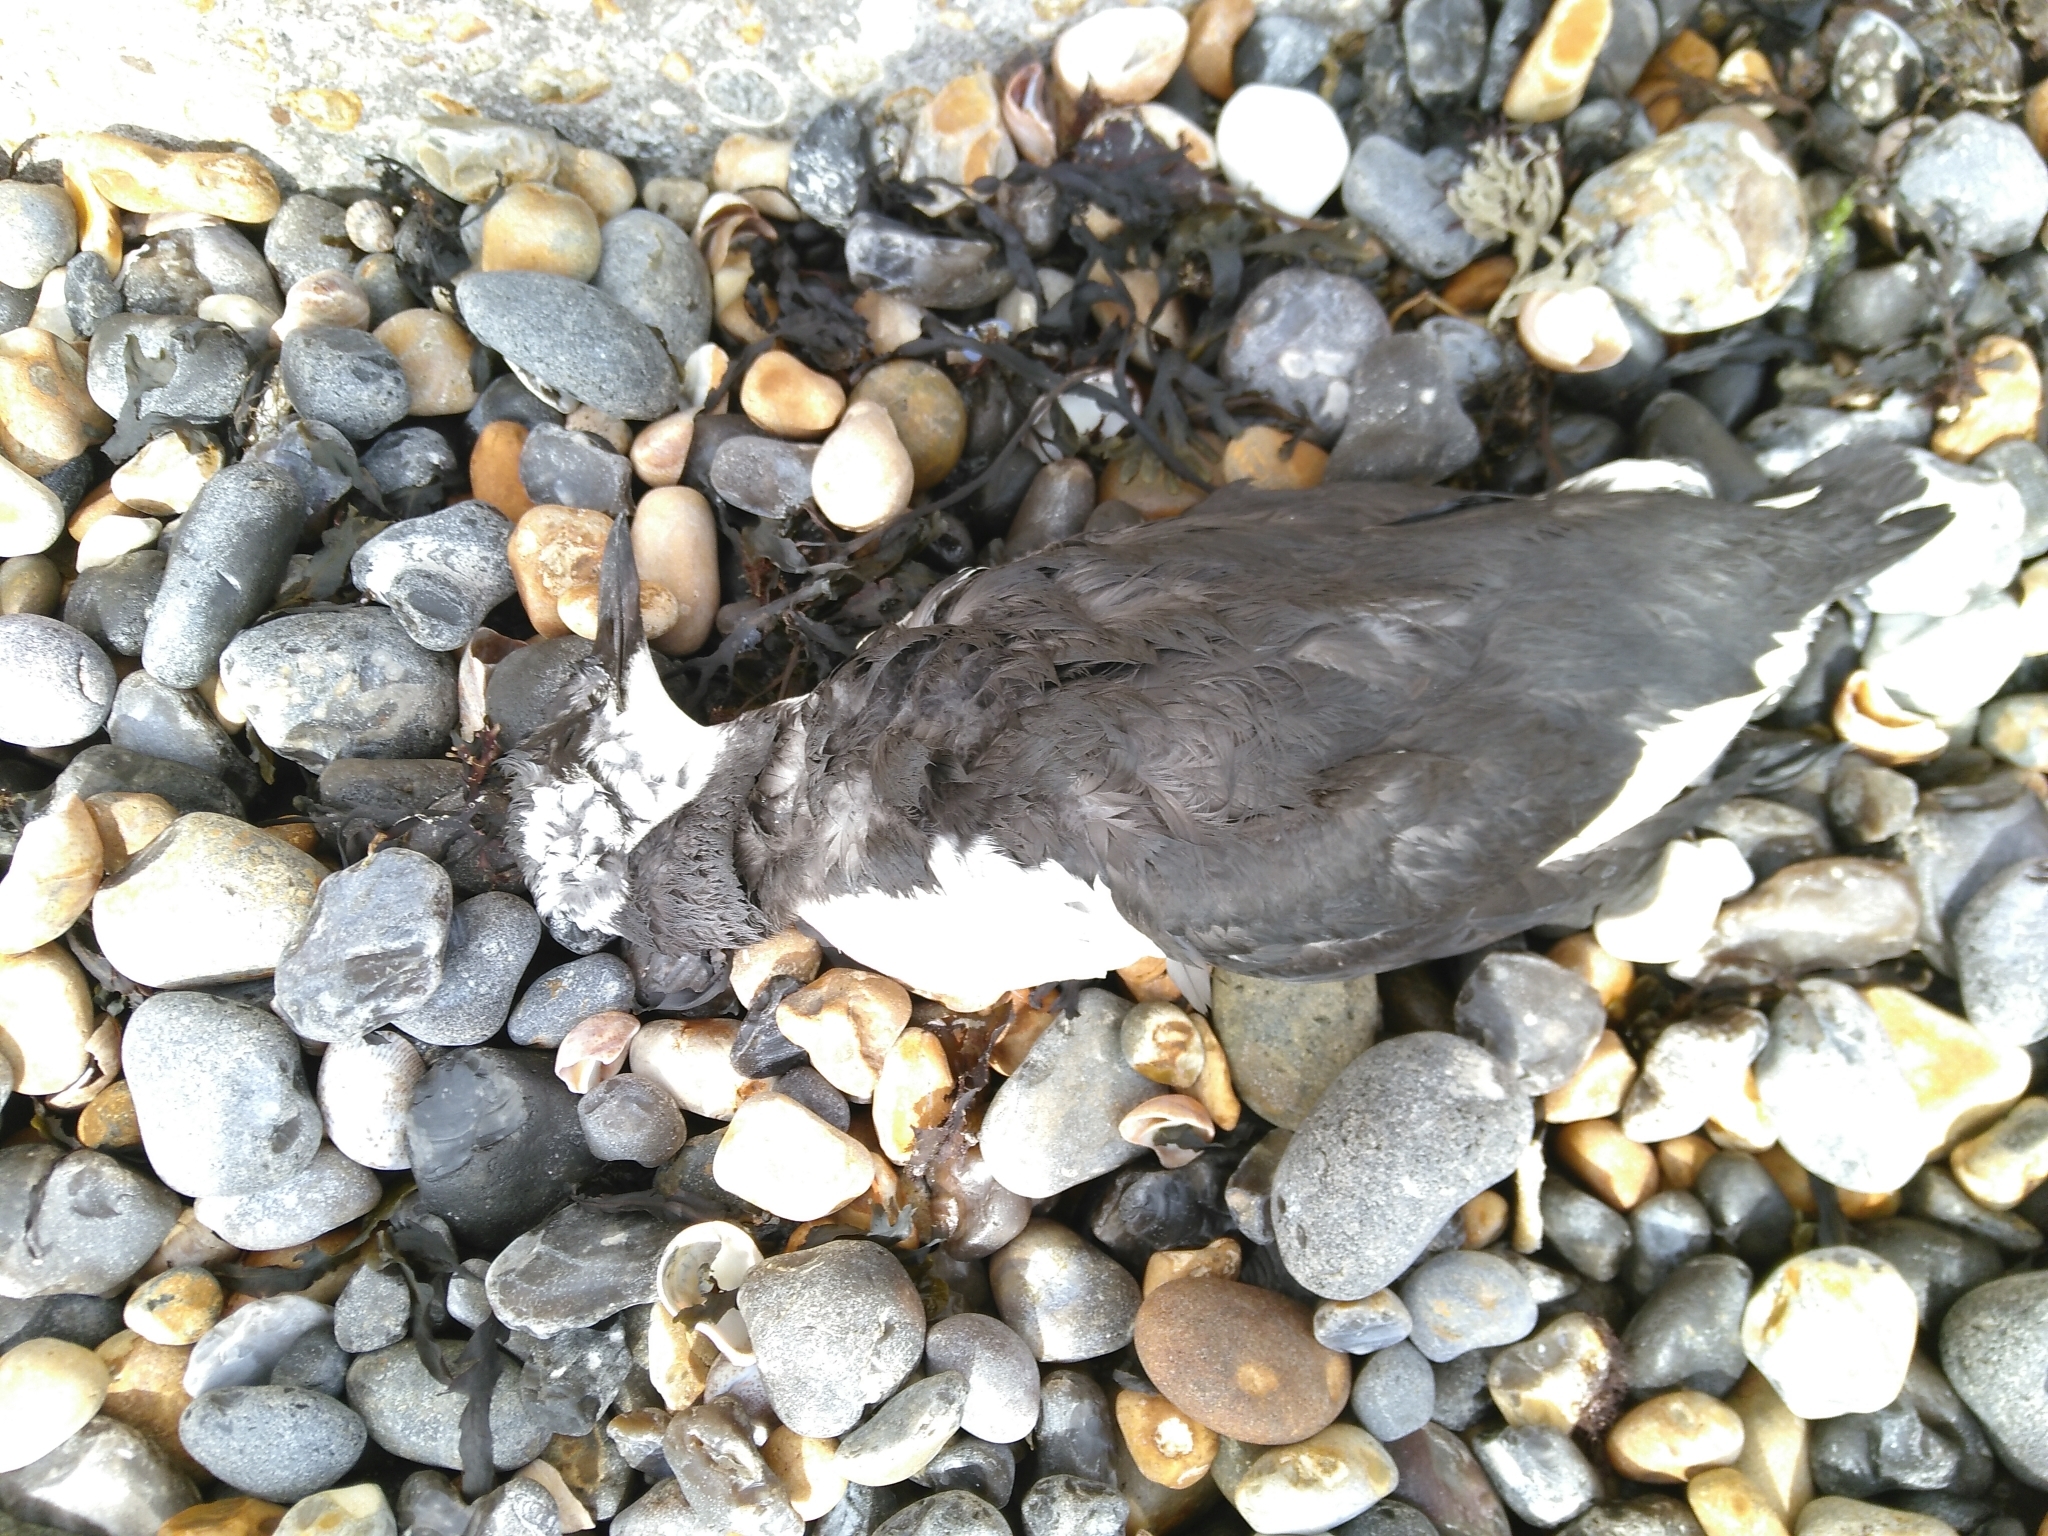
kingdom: Animalia
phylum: Chordata
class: Aves
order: Charadriiformes
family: Alcidae
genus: Uria
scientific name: Uria aalge
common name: Common murre
